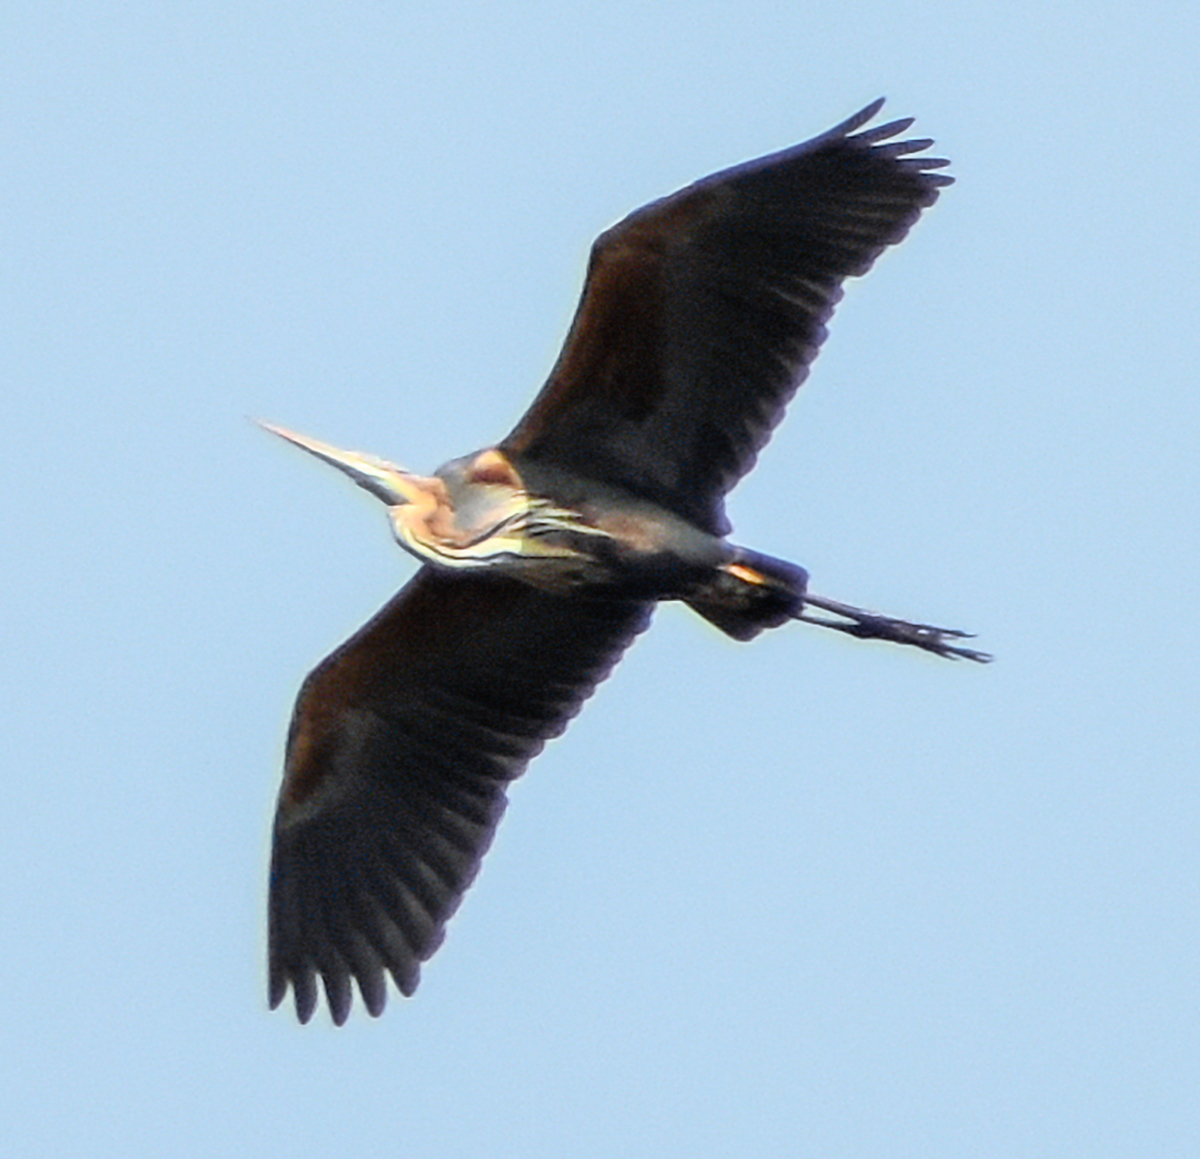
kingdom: Animalia
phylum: Chordata
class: Aves
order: Pelecaniformes
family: Ardeidae
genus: Ardea
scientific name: Ardea purpurea
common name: Purple heron
